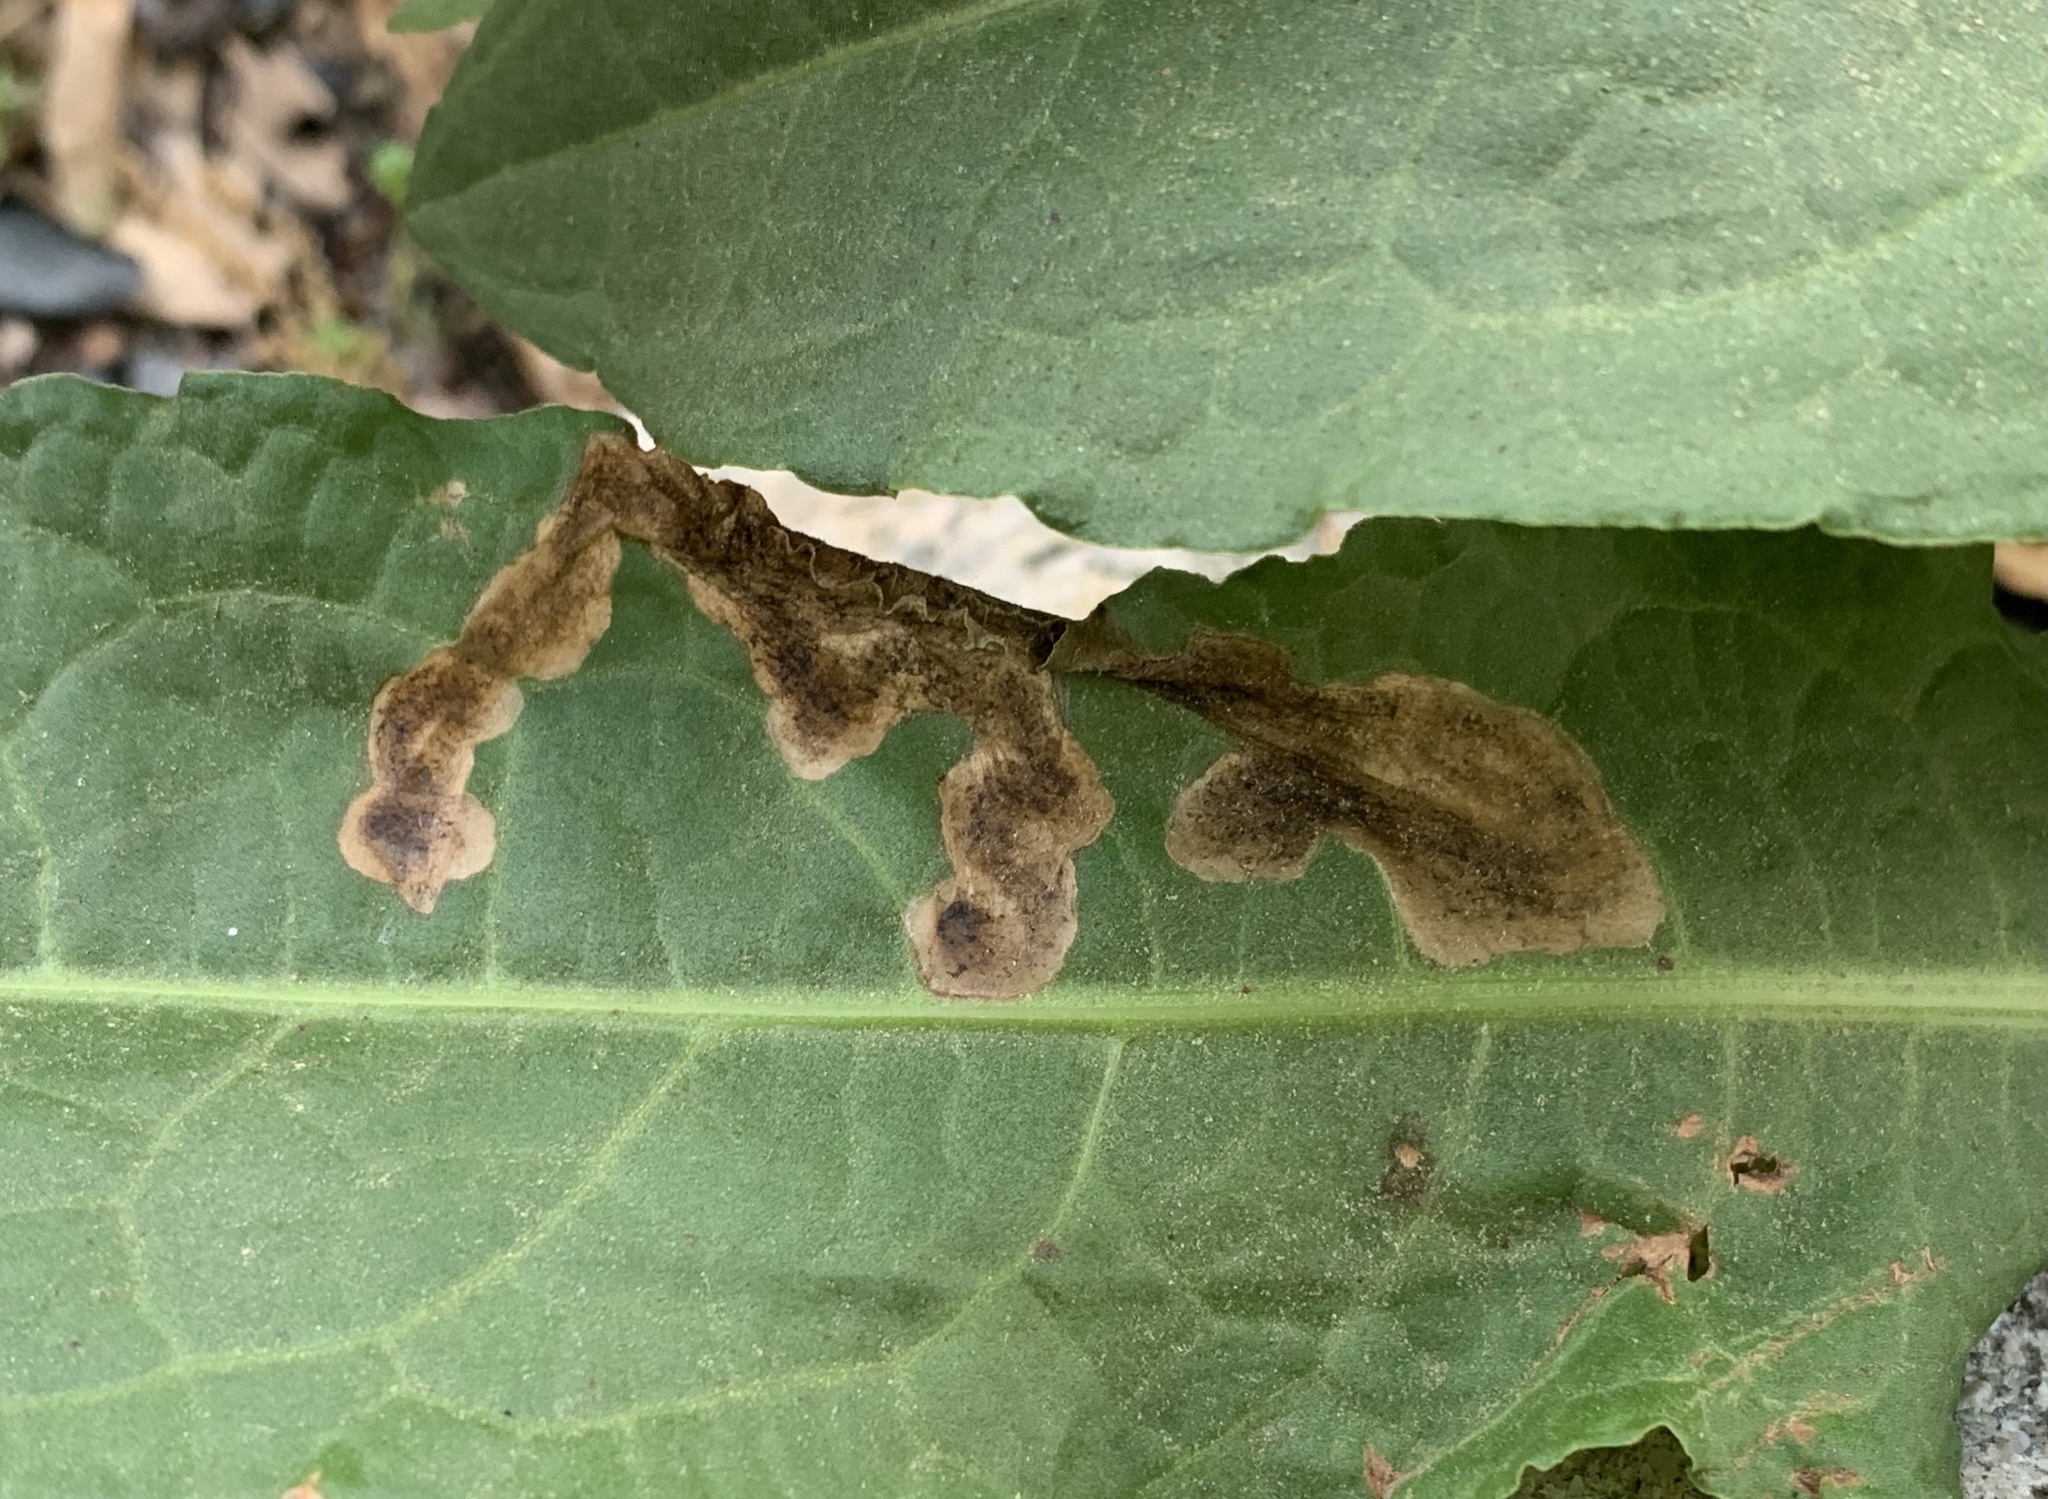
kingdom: Animalia
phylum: Arthropoda
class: Insecta
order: Diptera
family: Anthomyiidae
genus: Pegomya
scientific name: Pegomya bicolor
